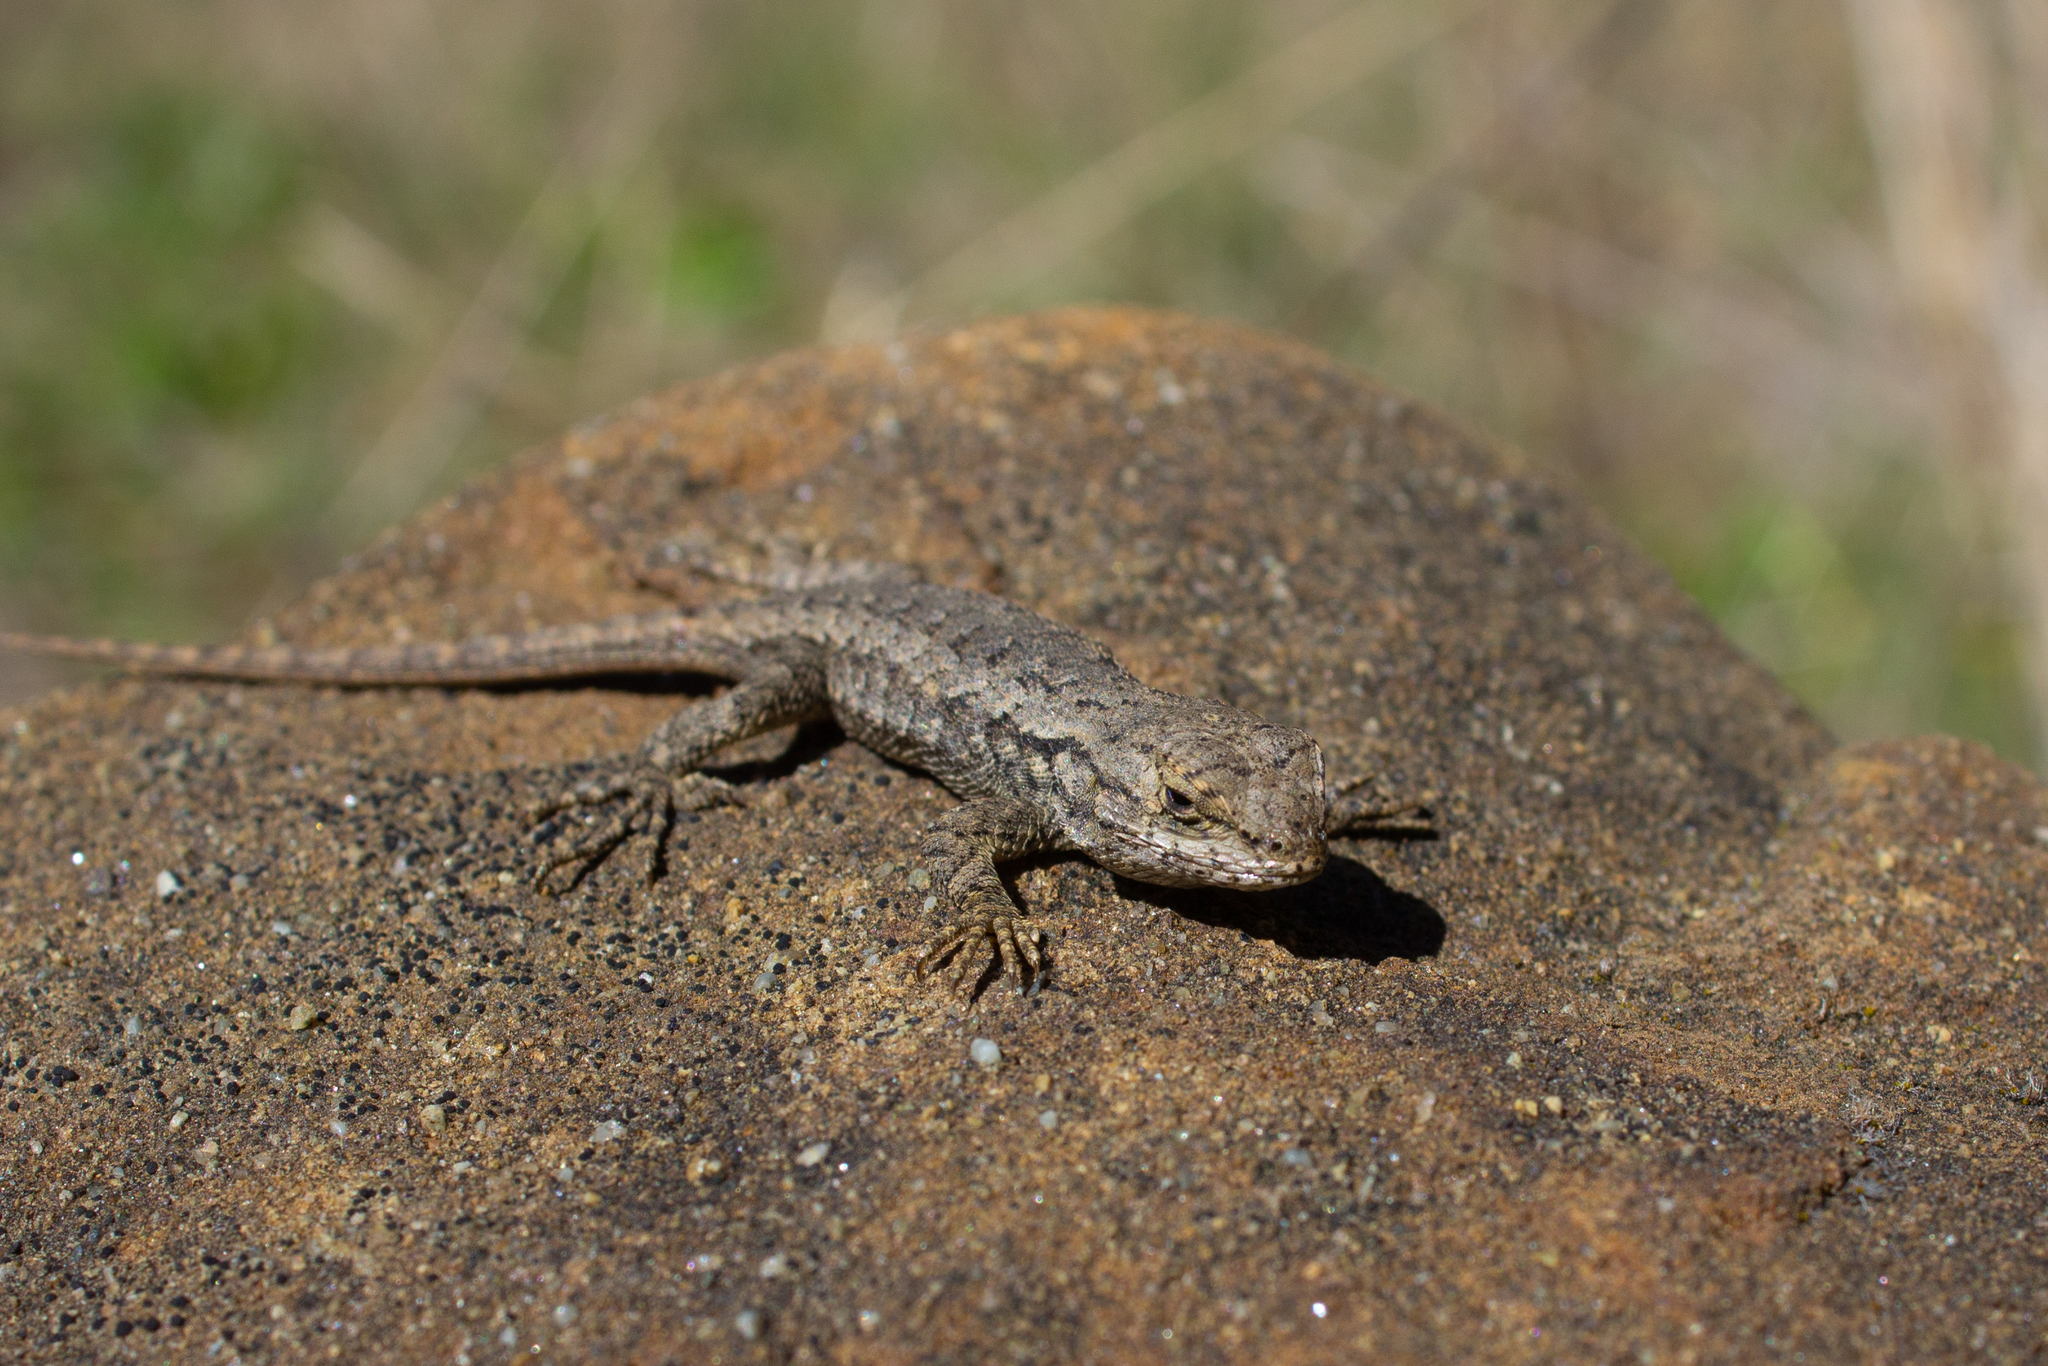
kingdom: Animalia
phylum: Chordata
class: Squamata
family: Phrynosomatidae
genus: Sceloporus
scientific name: Sceloporus occidentalis
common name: Western fence lizard
